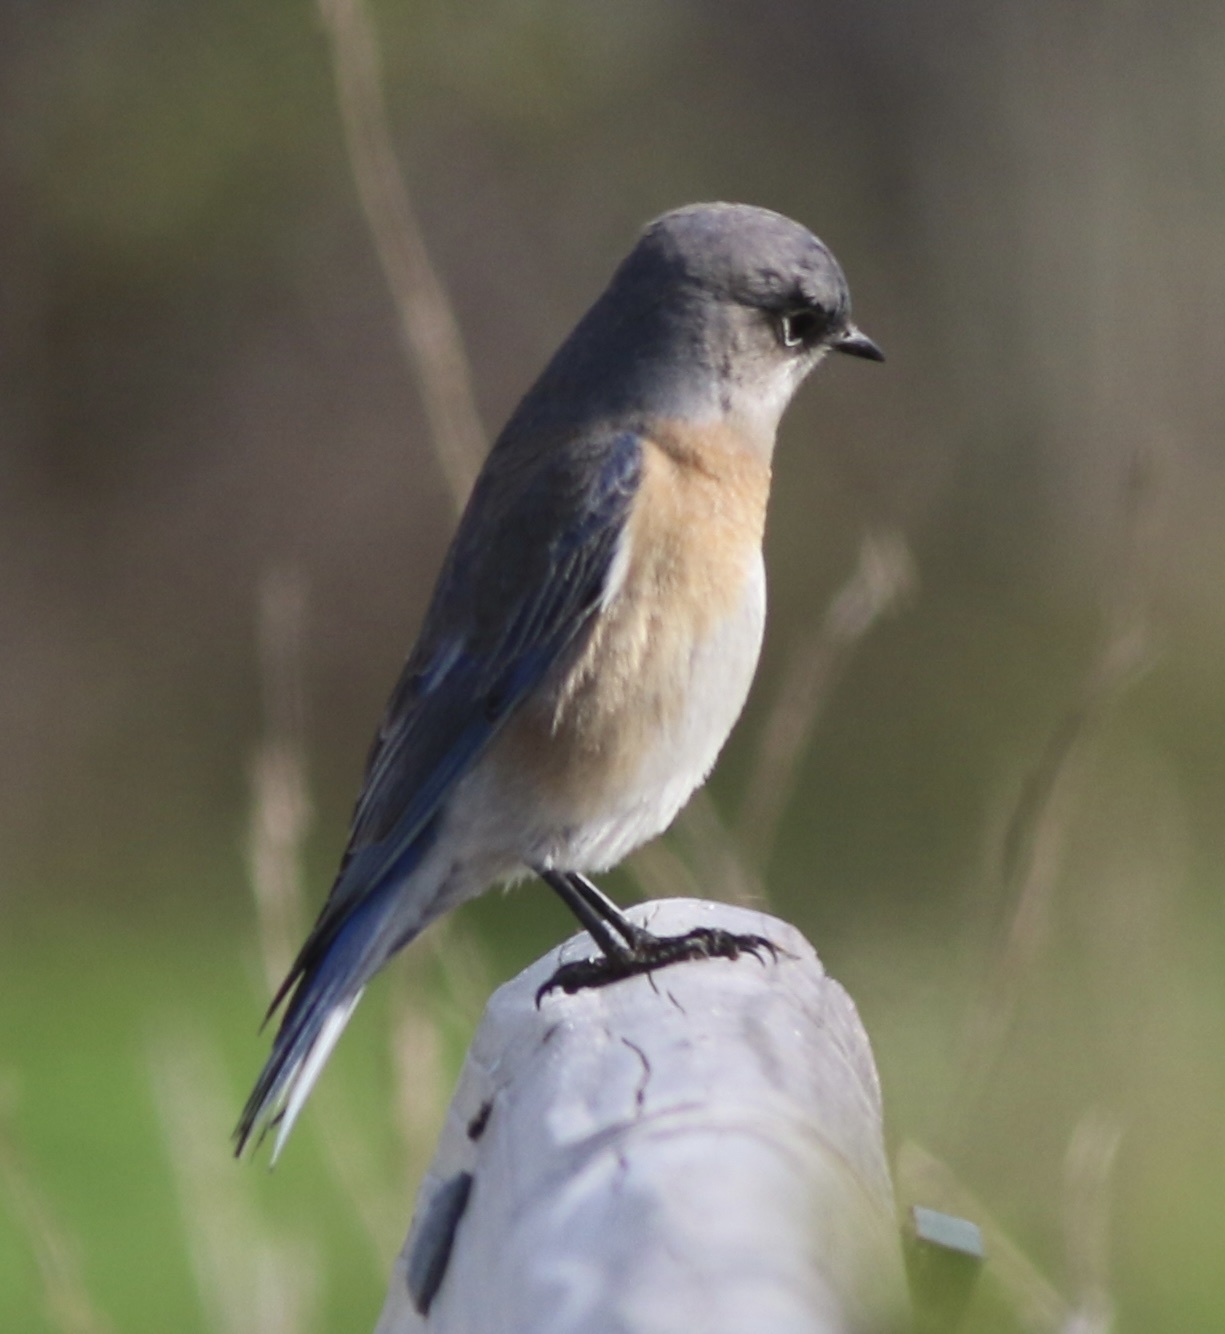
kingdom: Animalia
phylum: Chordata
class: Aves
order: Passeriformes
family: Turdidae
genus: Sialia
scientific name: Sialia mexicana
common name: Western bluebird
